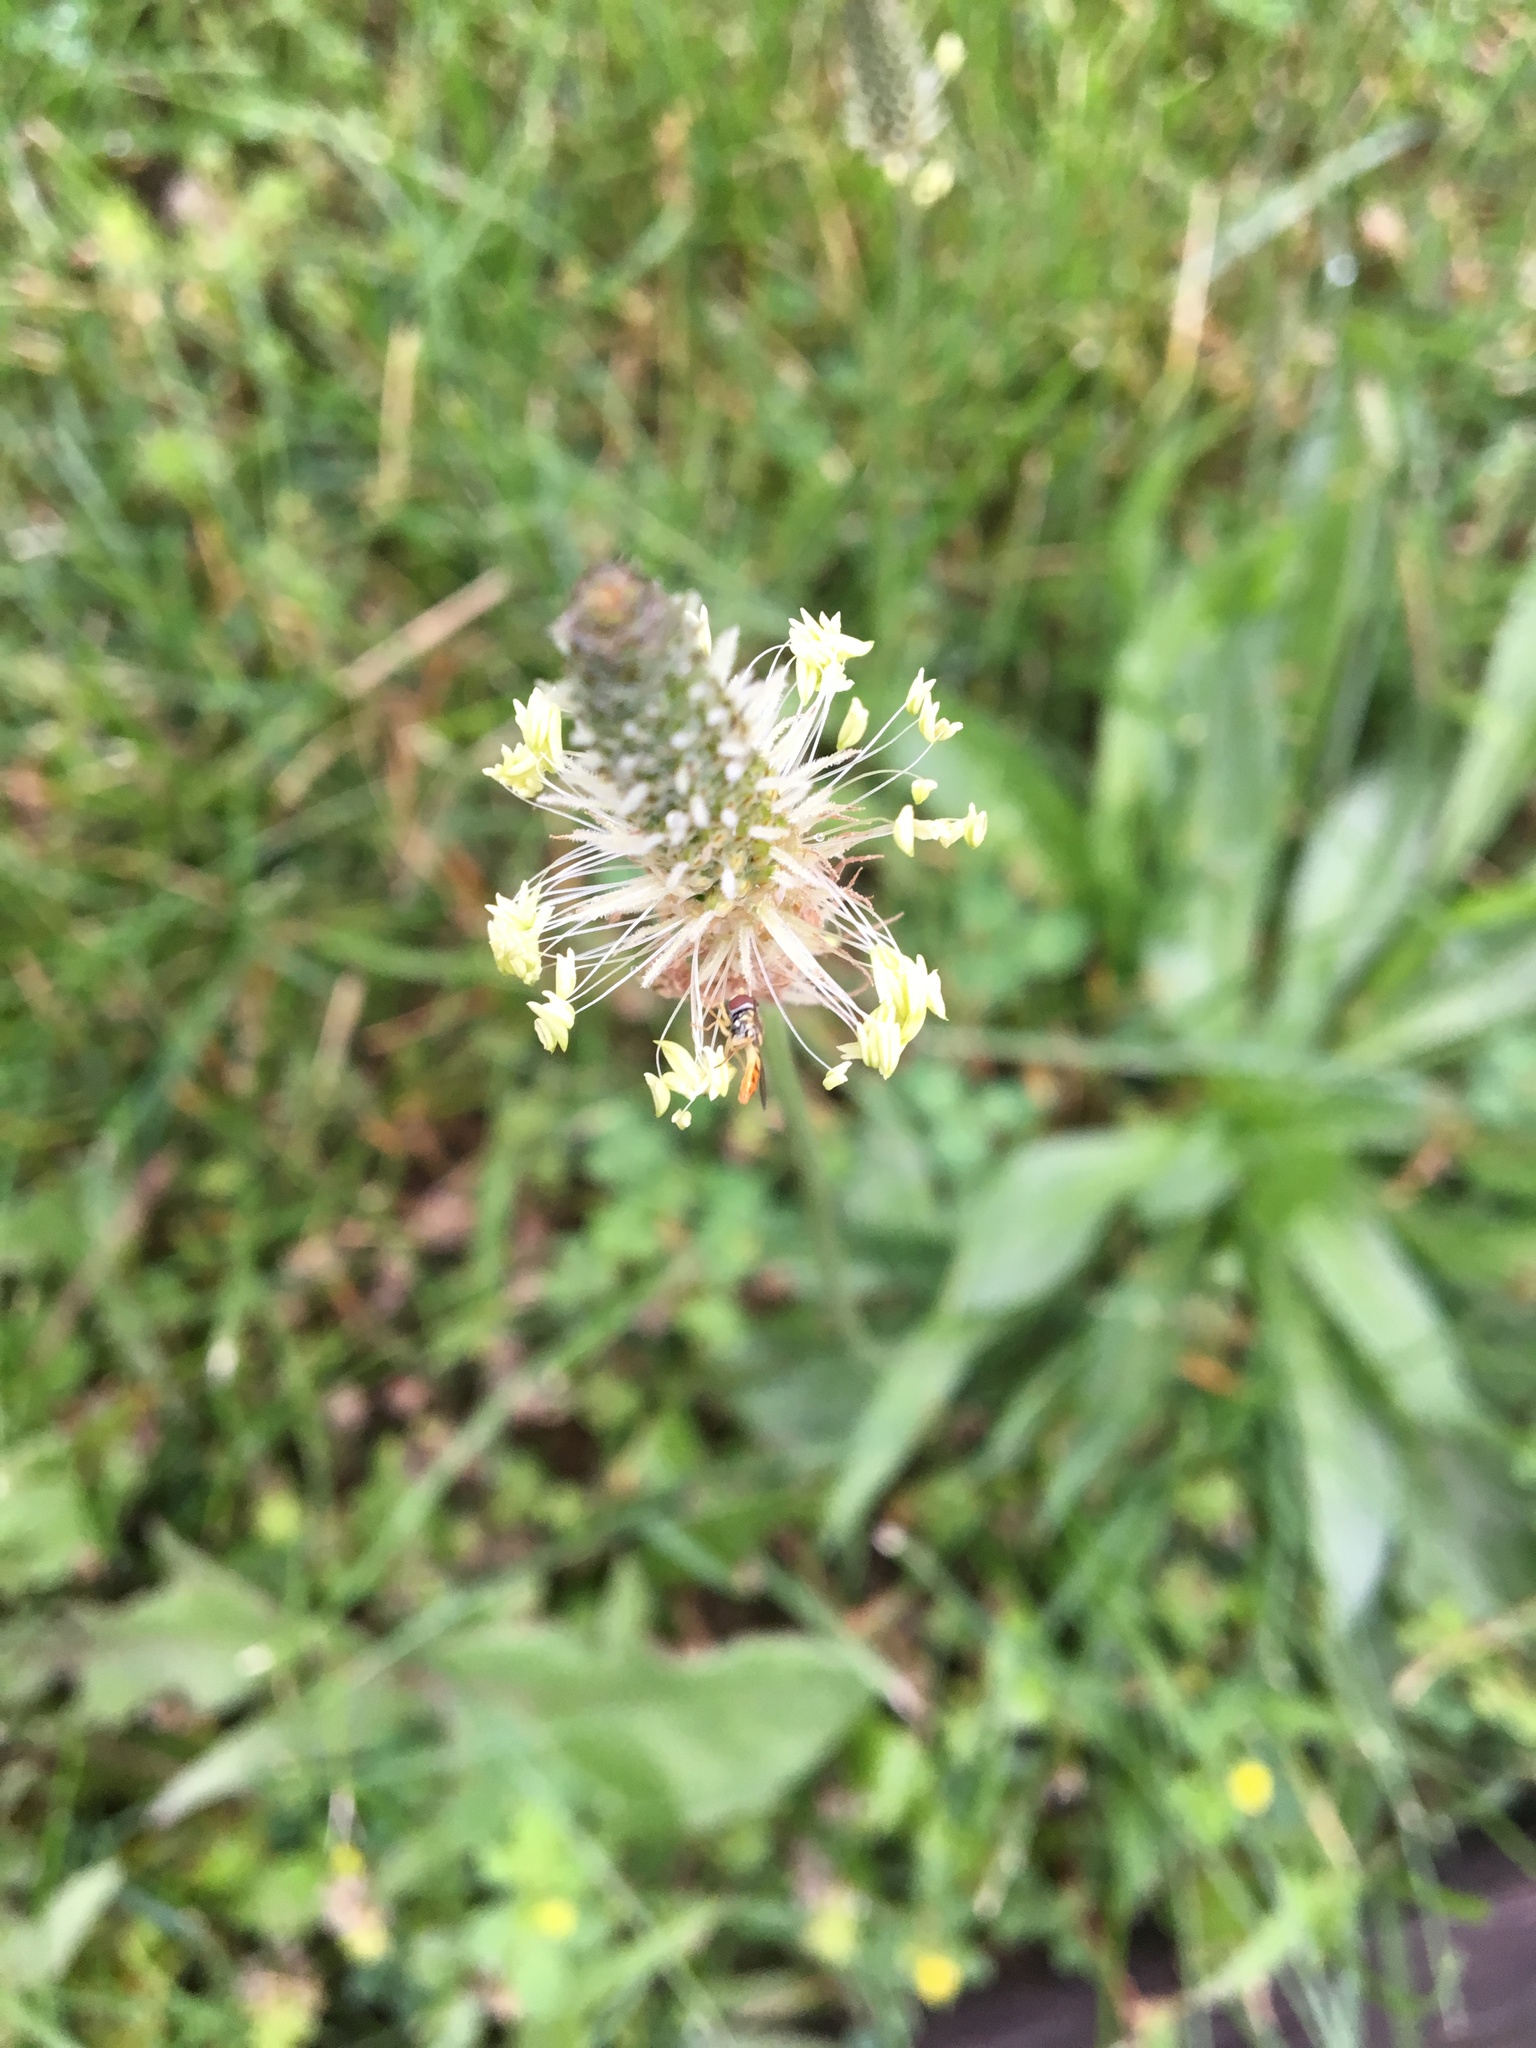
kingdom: Plantae
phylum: Tracheophyta
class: Magnoliopsida
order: Lamiales
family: Plantaginaceae
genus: Plantago
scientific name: Plantago lanceolata
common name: Ribwort plantain
